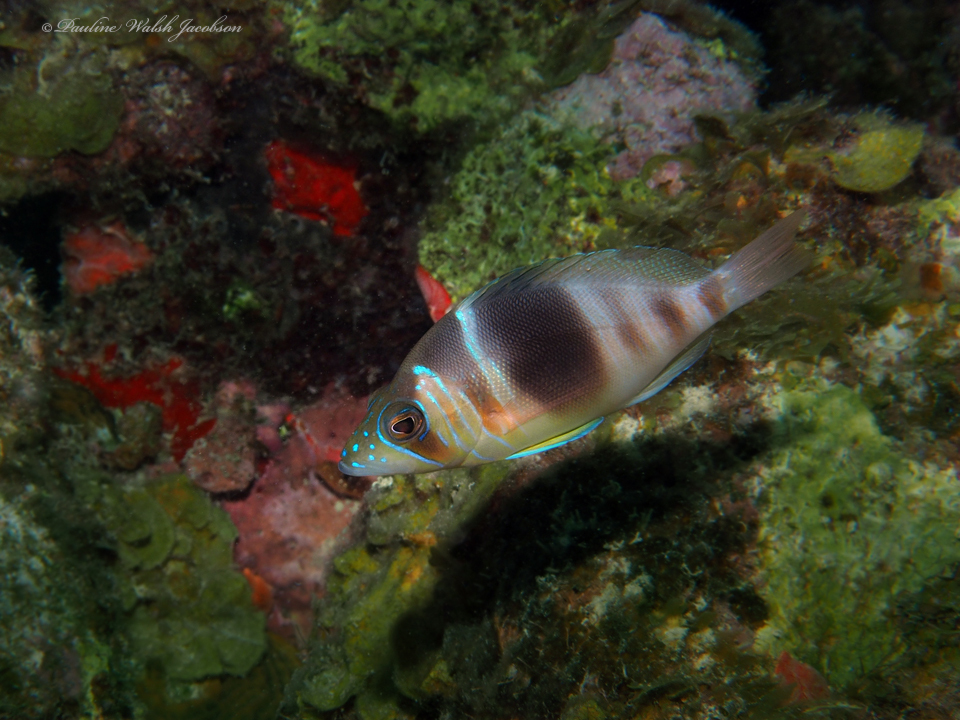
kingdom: Animalia
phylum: Chordata
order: Perciformes
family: Serranidae
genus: Hypoplectrus
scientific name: Hypoplectrus puella
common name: Barred hamlet
